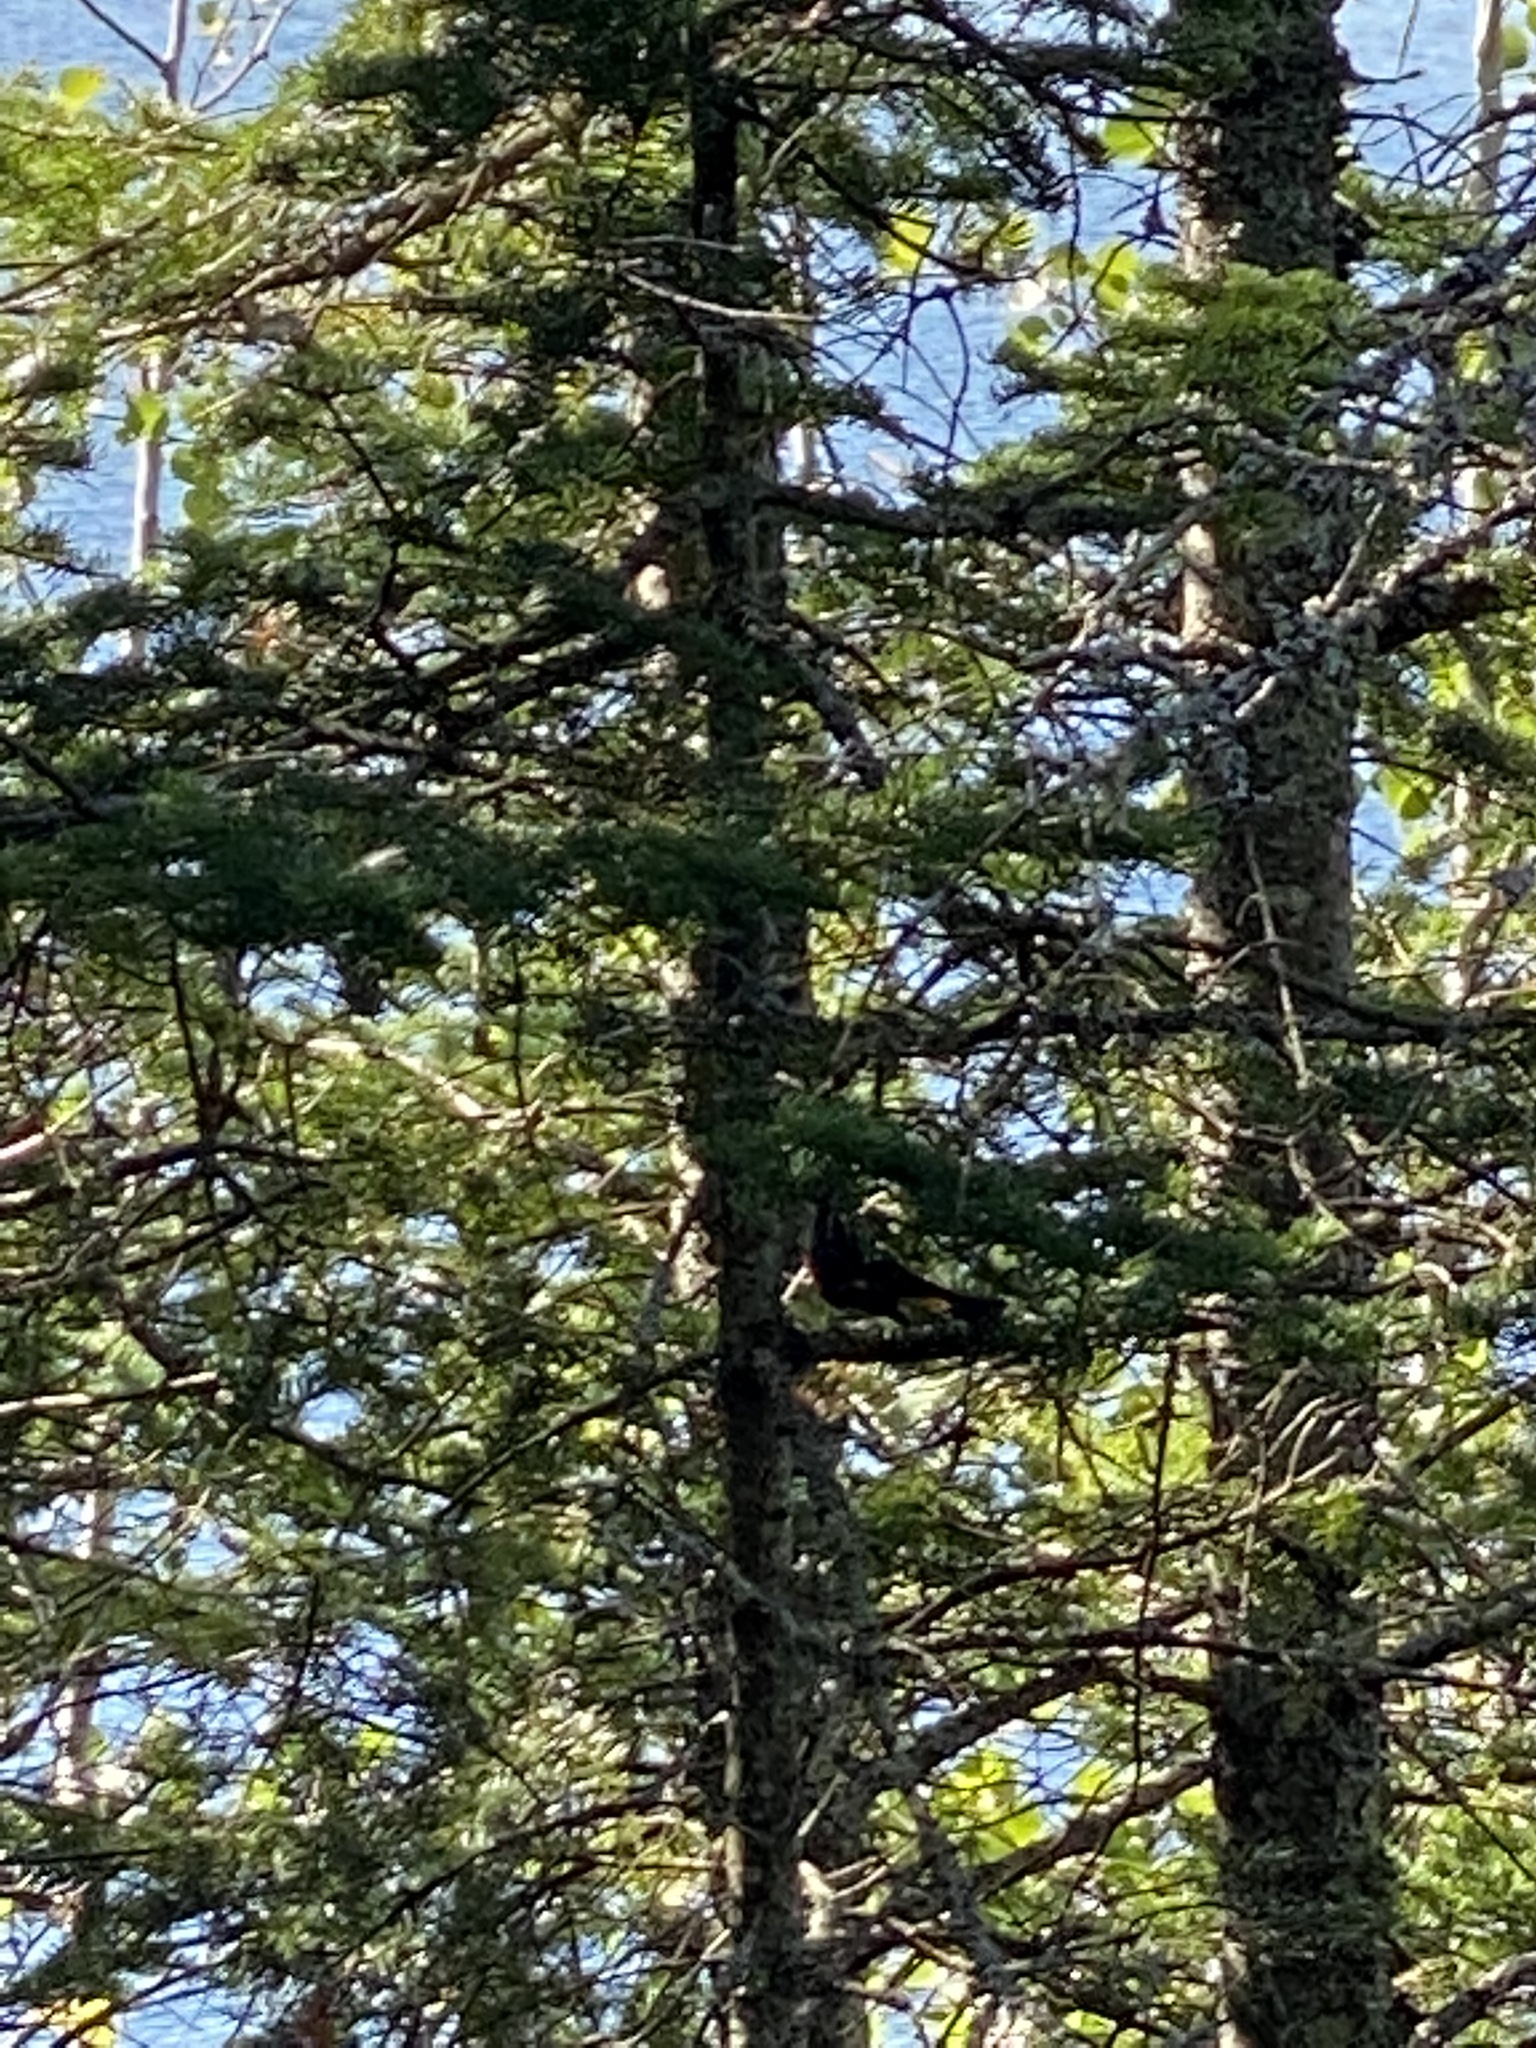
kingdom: Animalia
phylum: Chordata
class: Aves
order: Passeriformes
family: Parulidae
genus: Setophaga
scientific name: Setophaga ruticilla
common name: American redstart
